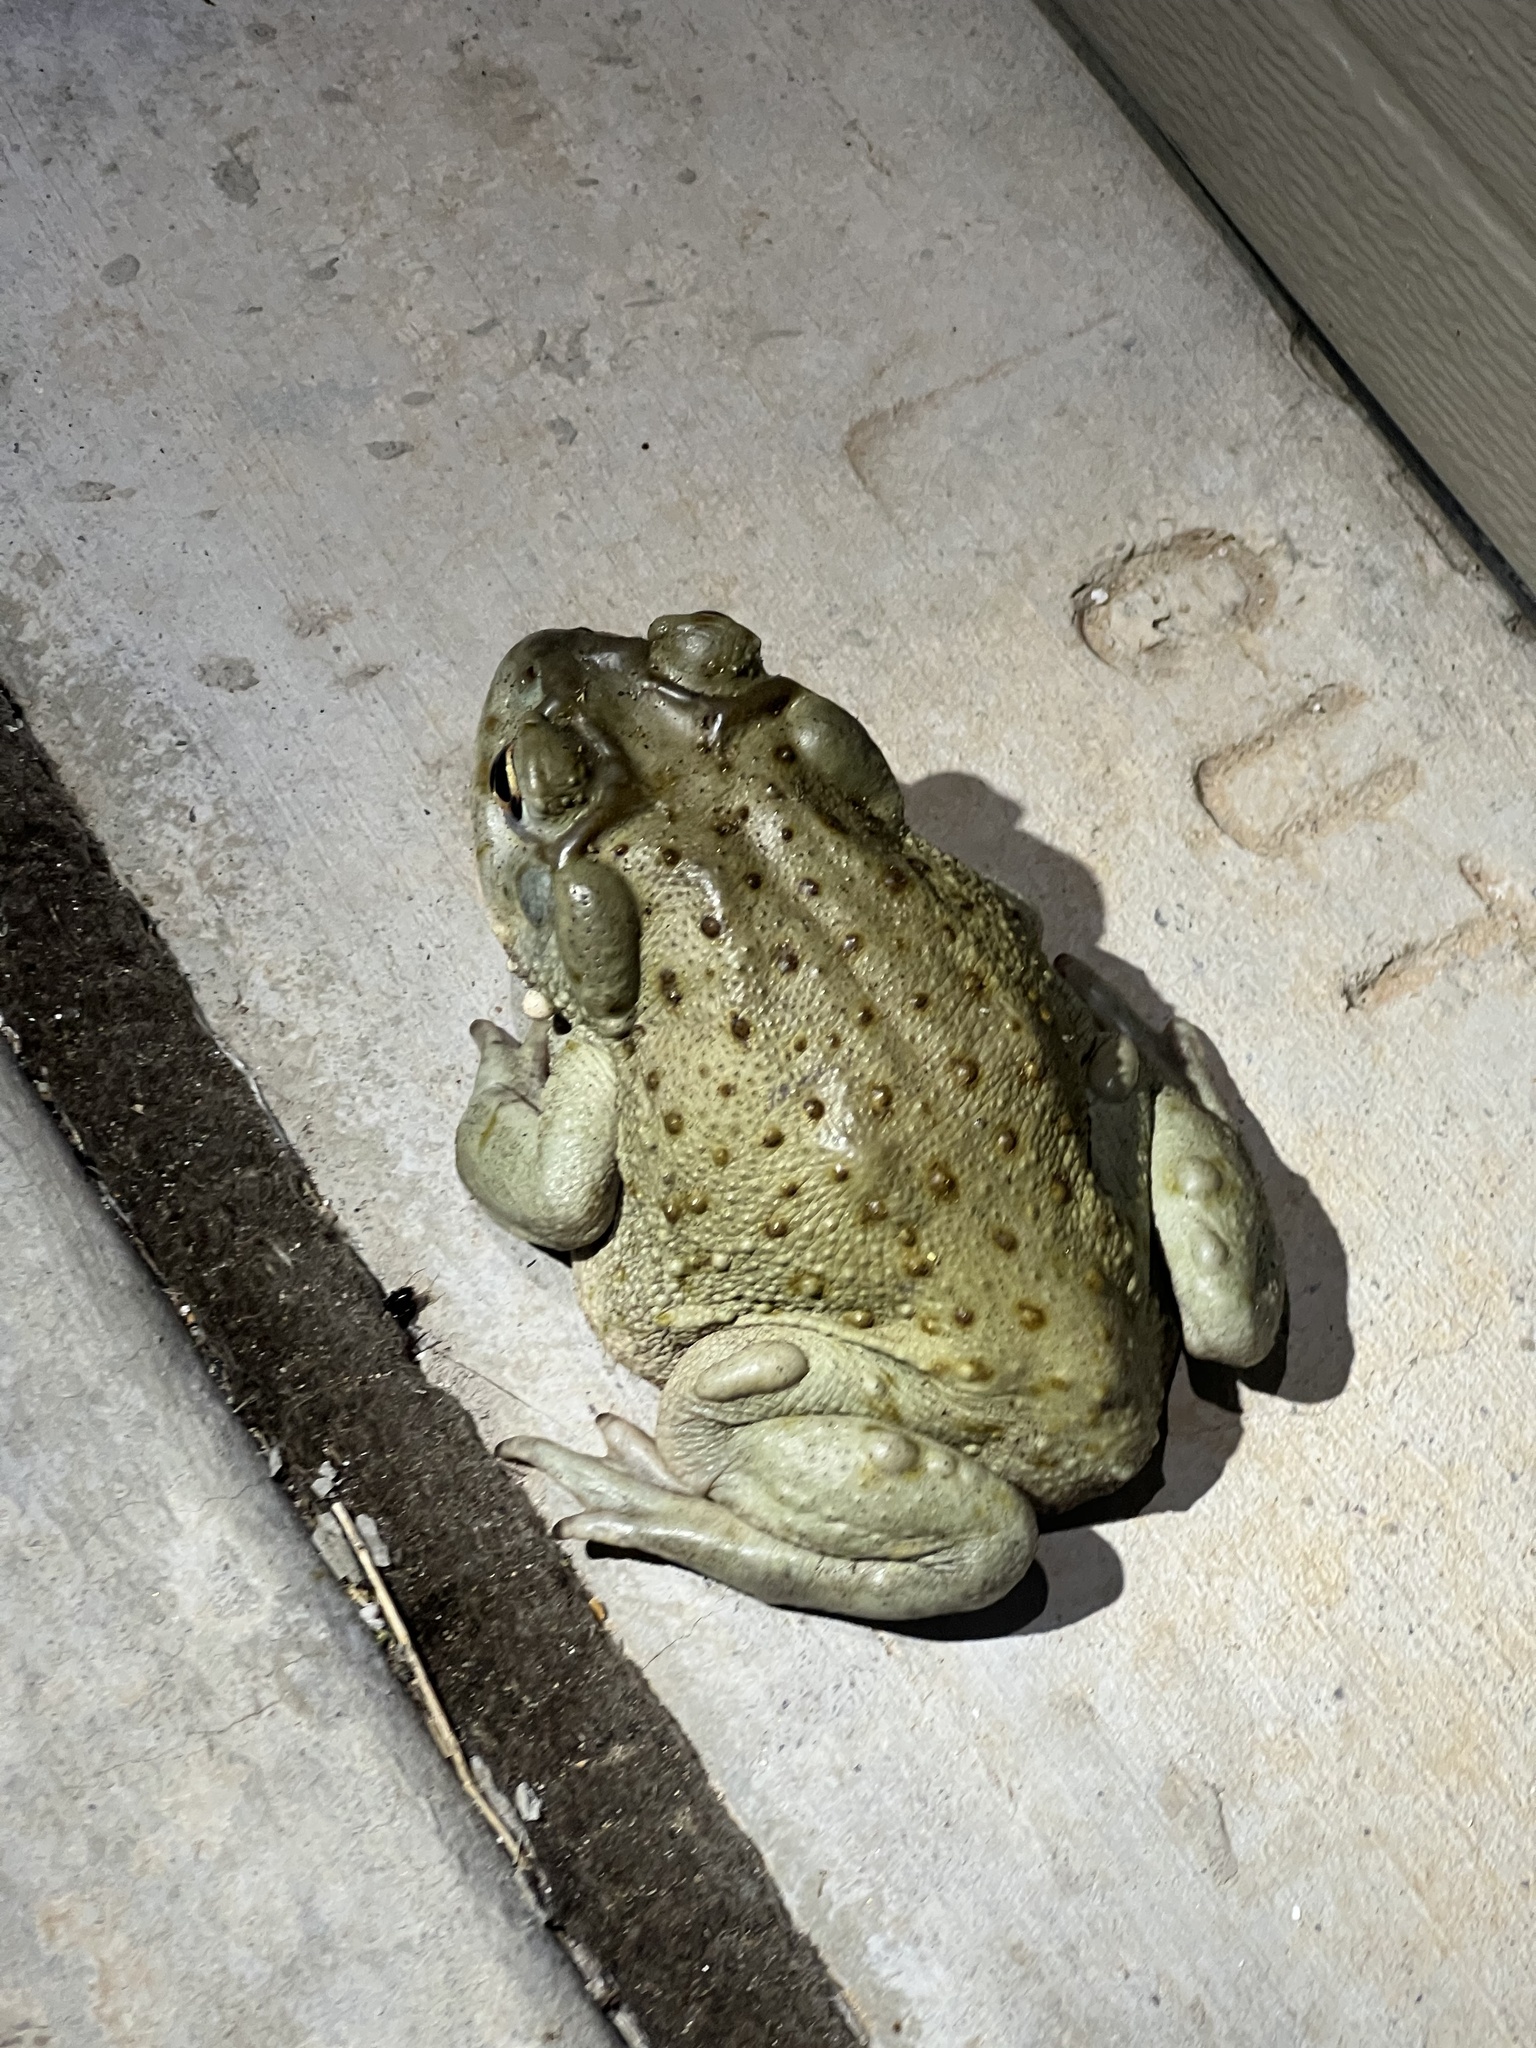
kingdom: Animalia
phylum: Chordata
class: Amphibia
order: Anura
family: Bufonidae
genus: Incilius
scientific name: Incilius alvarius
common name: Sonoran desert toad
